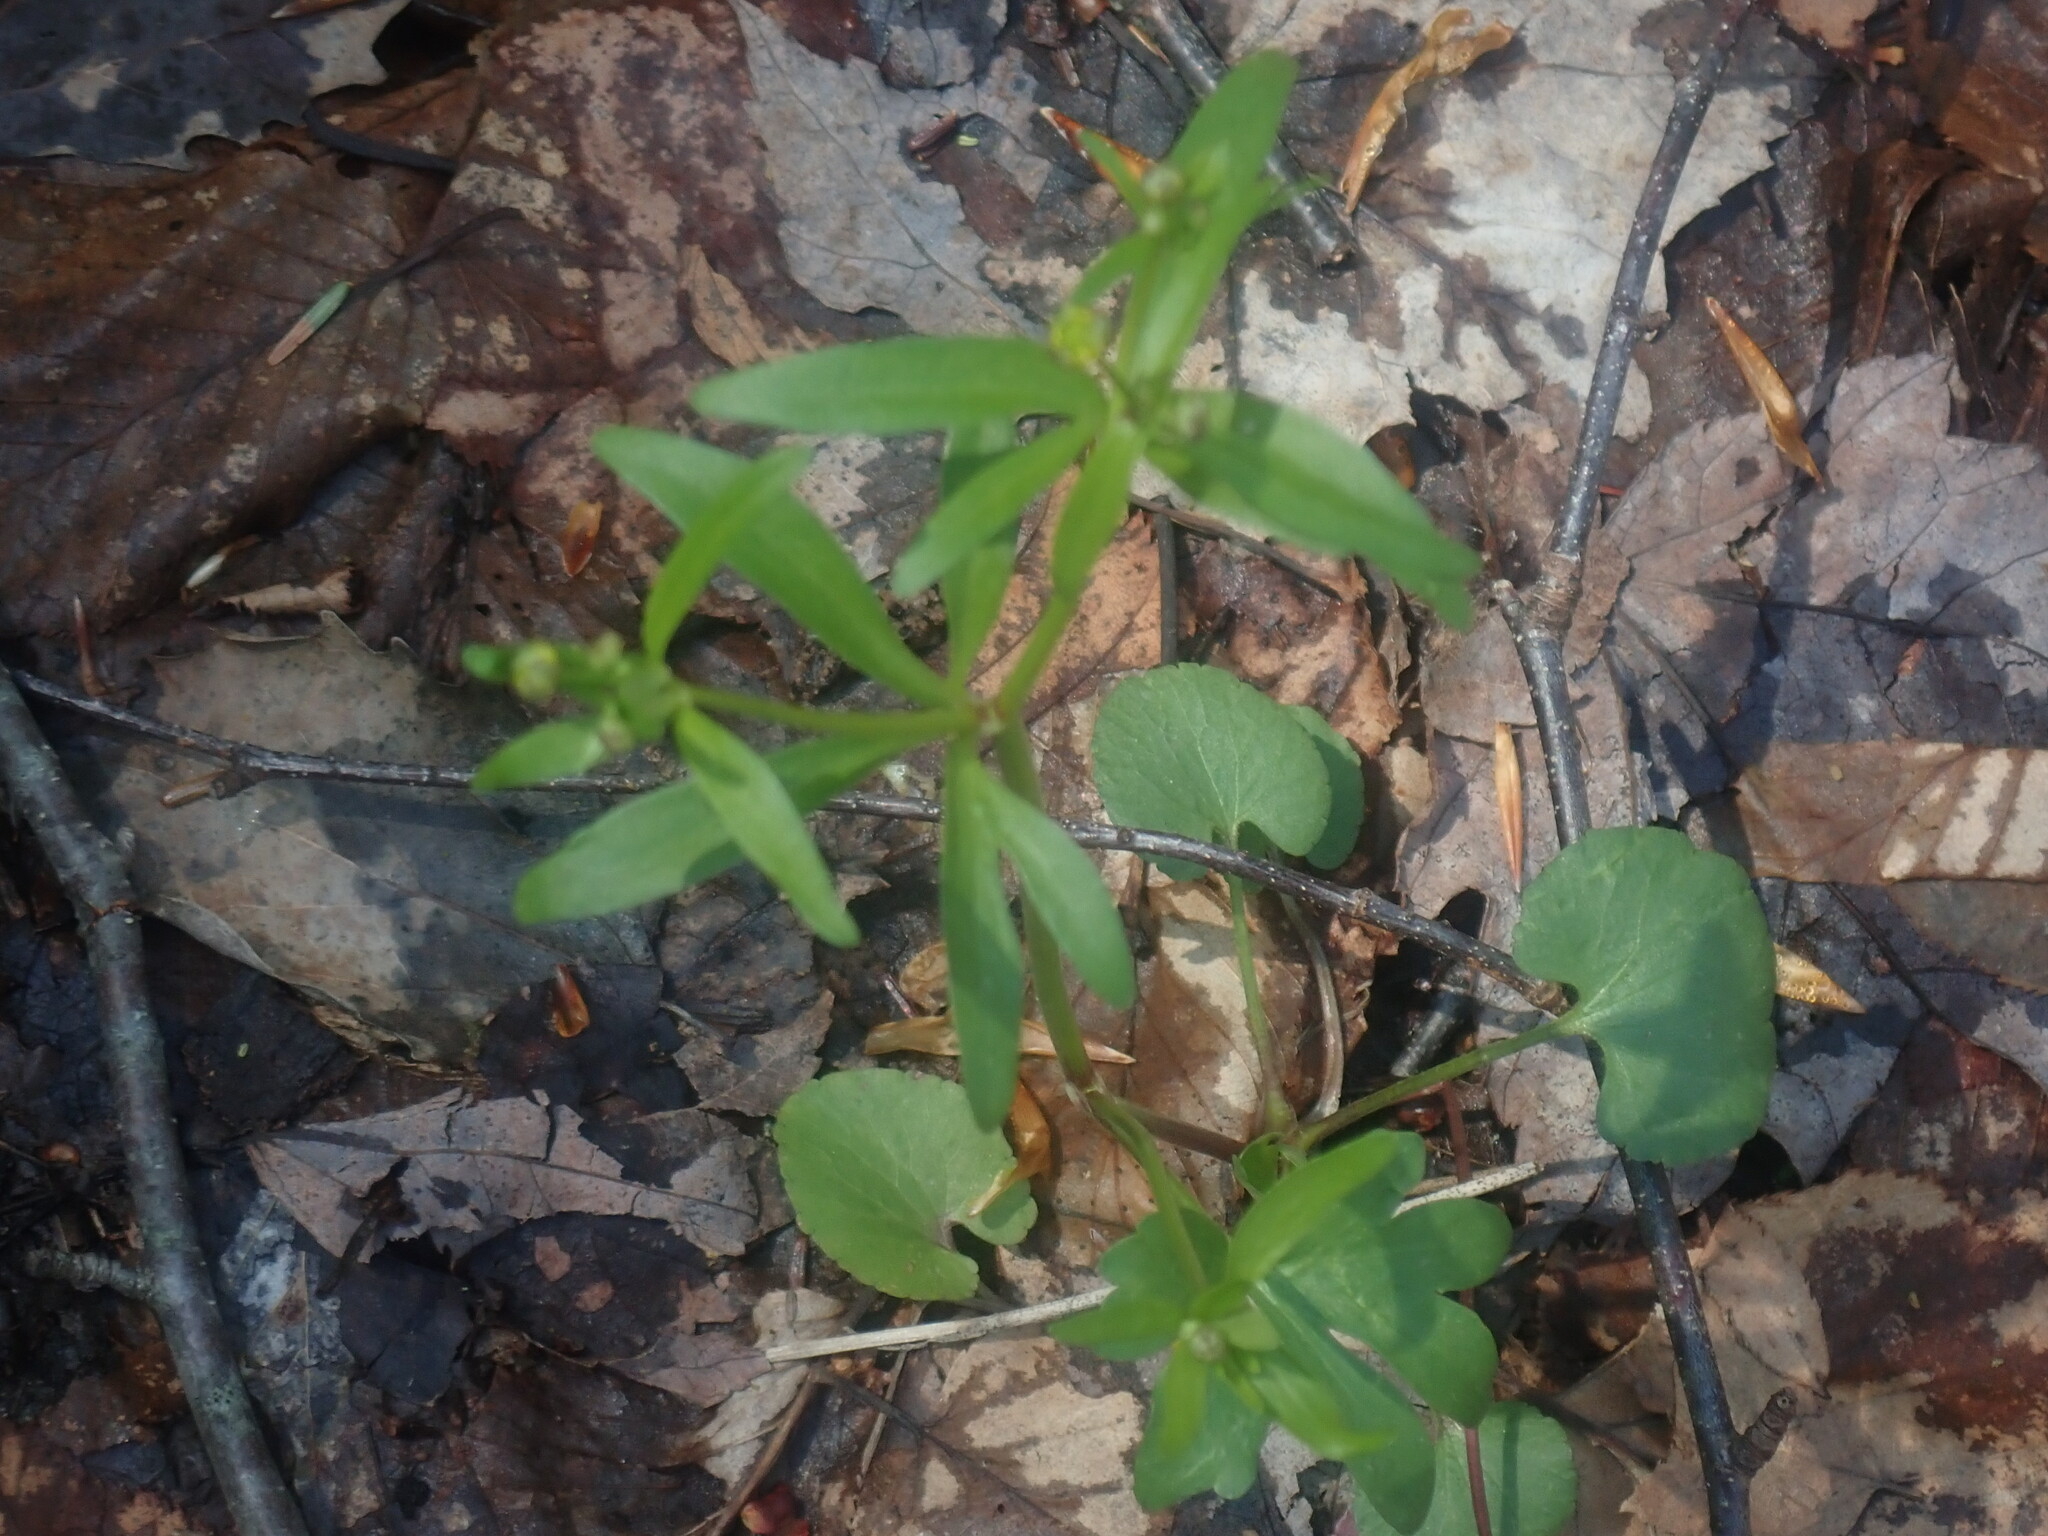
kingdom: Plantae
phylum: Tracheophyta
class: Magnoliopsida
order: Ranunculales
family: Ranunculaceae
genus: Ranunculus
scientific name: Ranunculus abortivus
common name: Early wood buttercup
